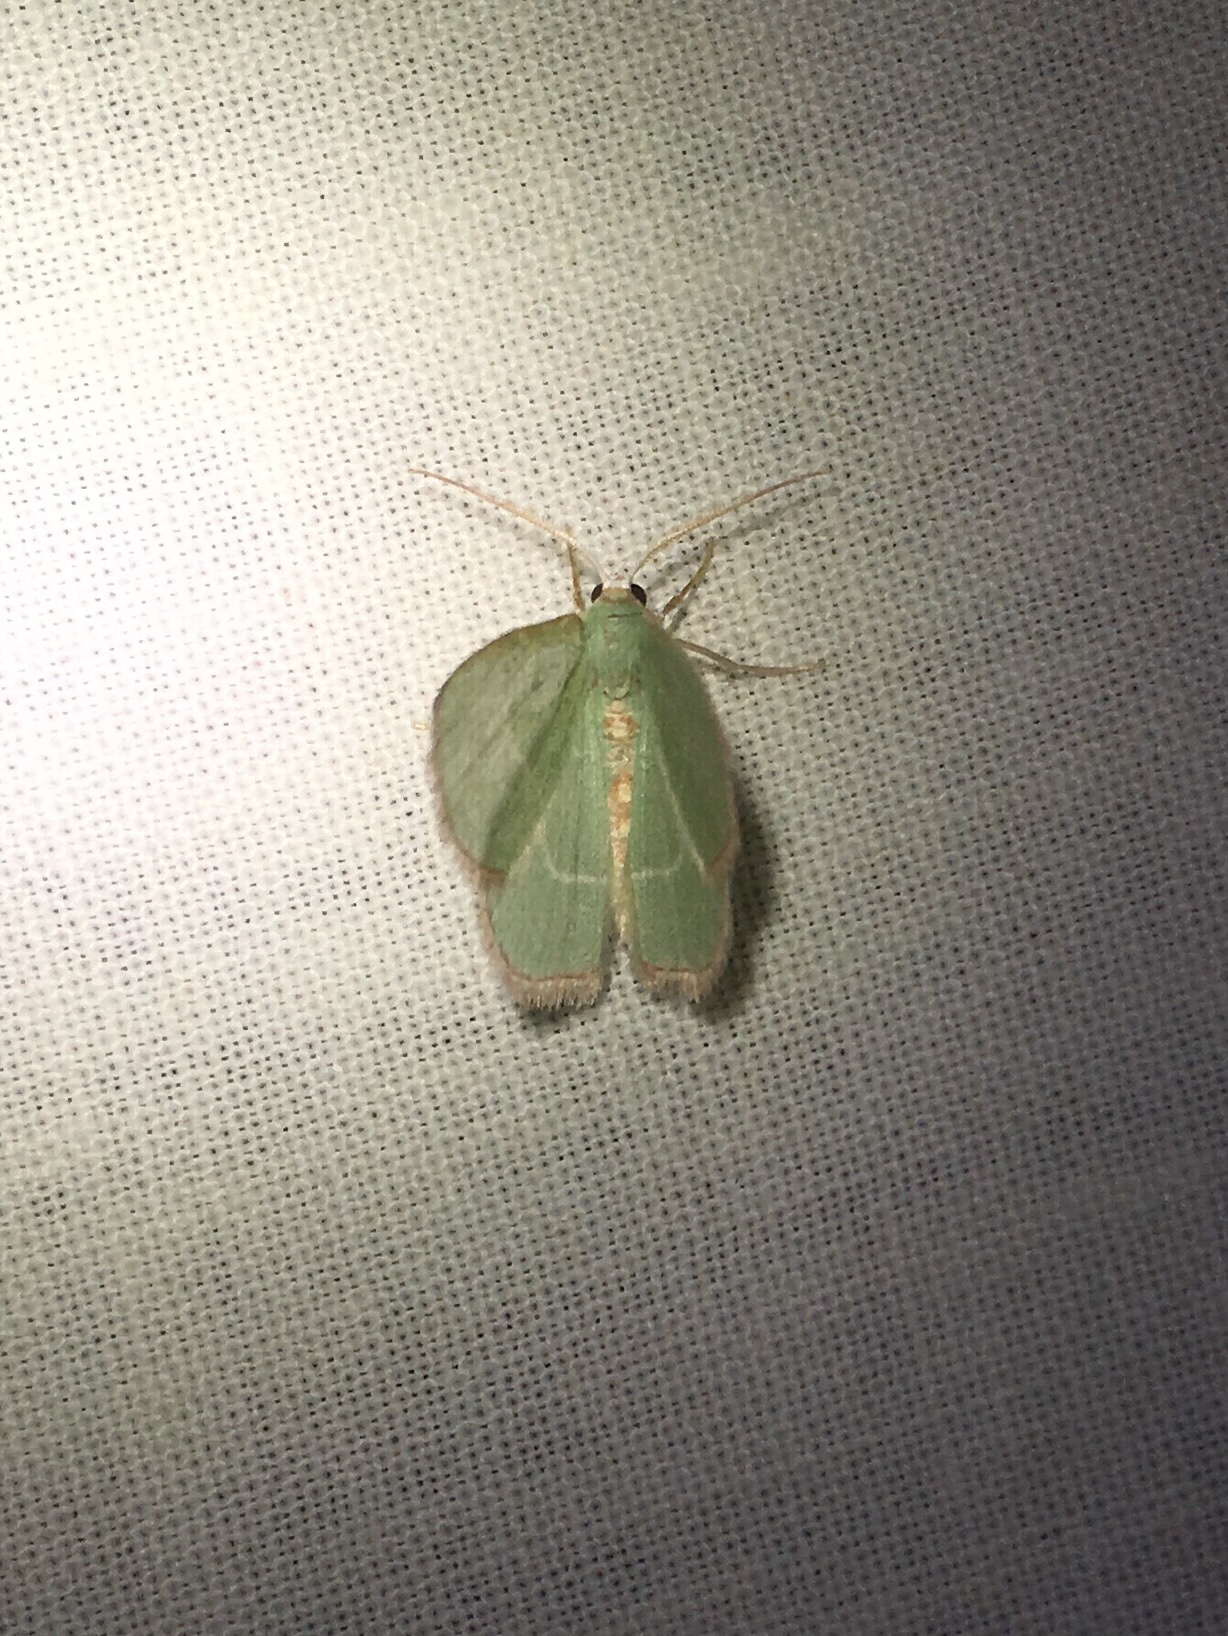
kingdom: Animalia
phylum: Arthropoda
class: Insecta
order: Lepidoptera
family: Geometridae
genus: Nemoria
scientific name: Nemoria bistriaria
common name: Red-fringed emerald
